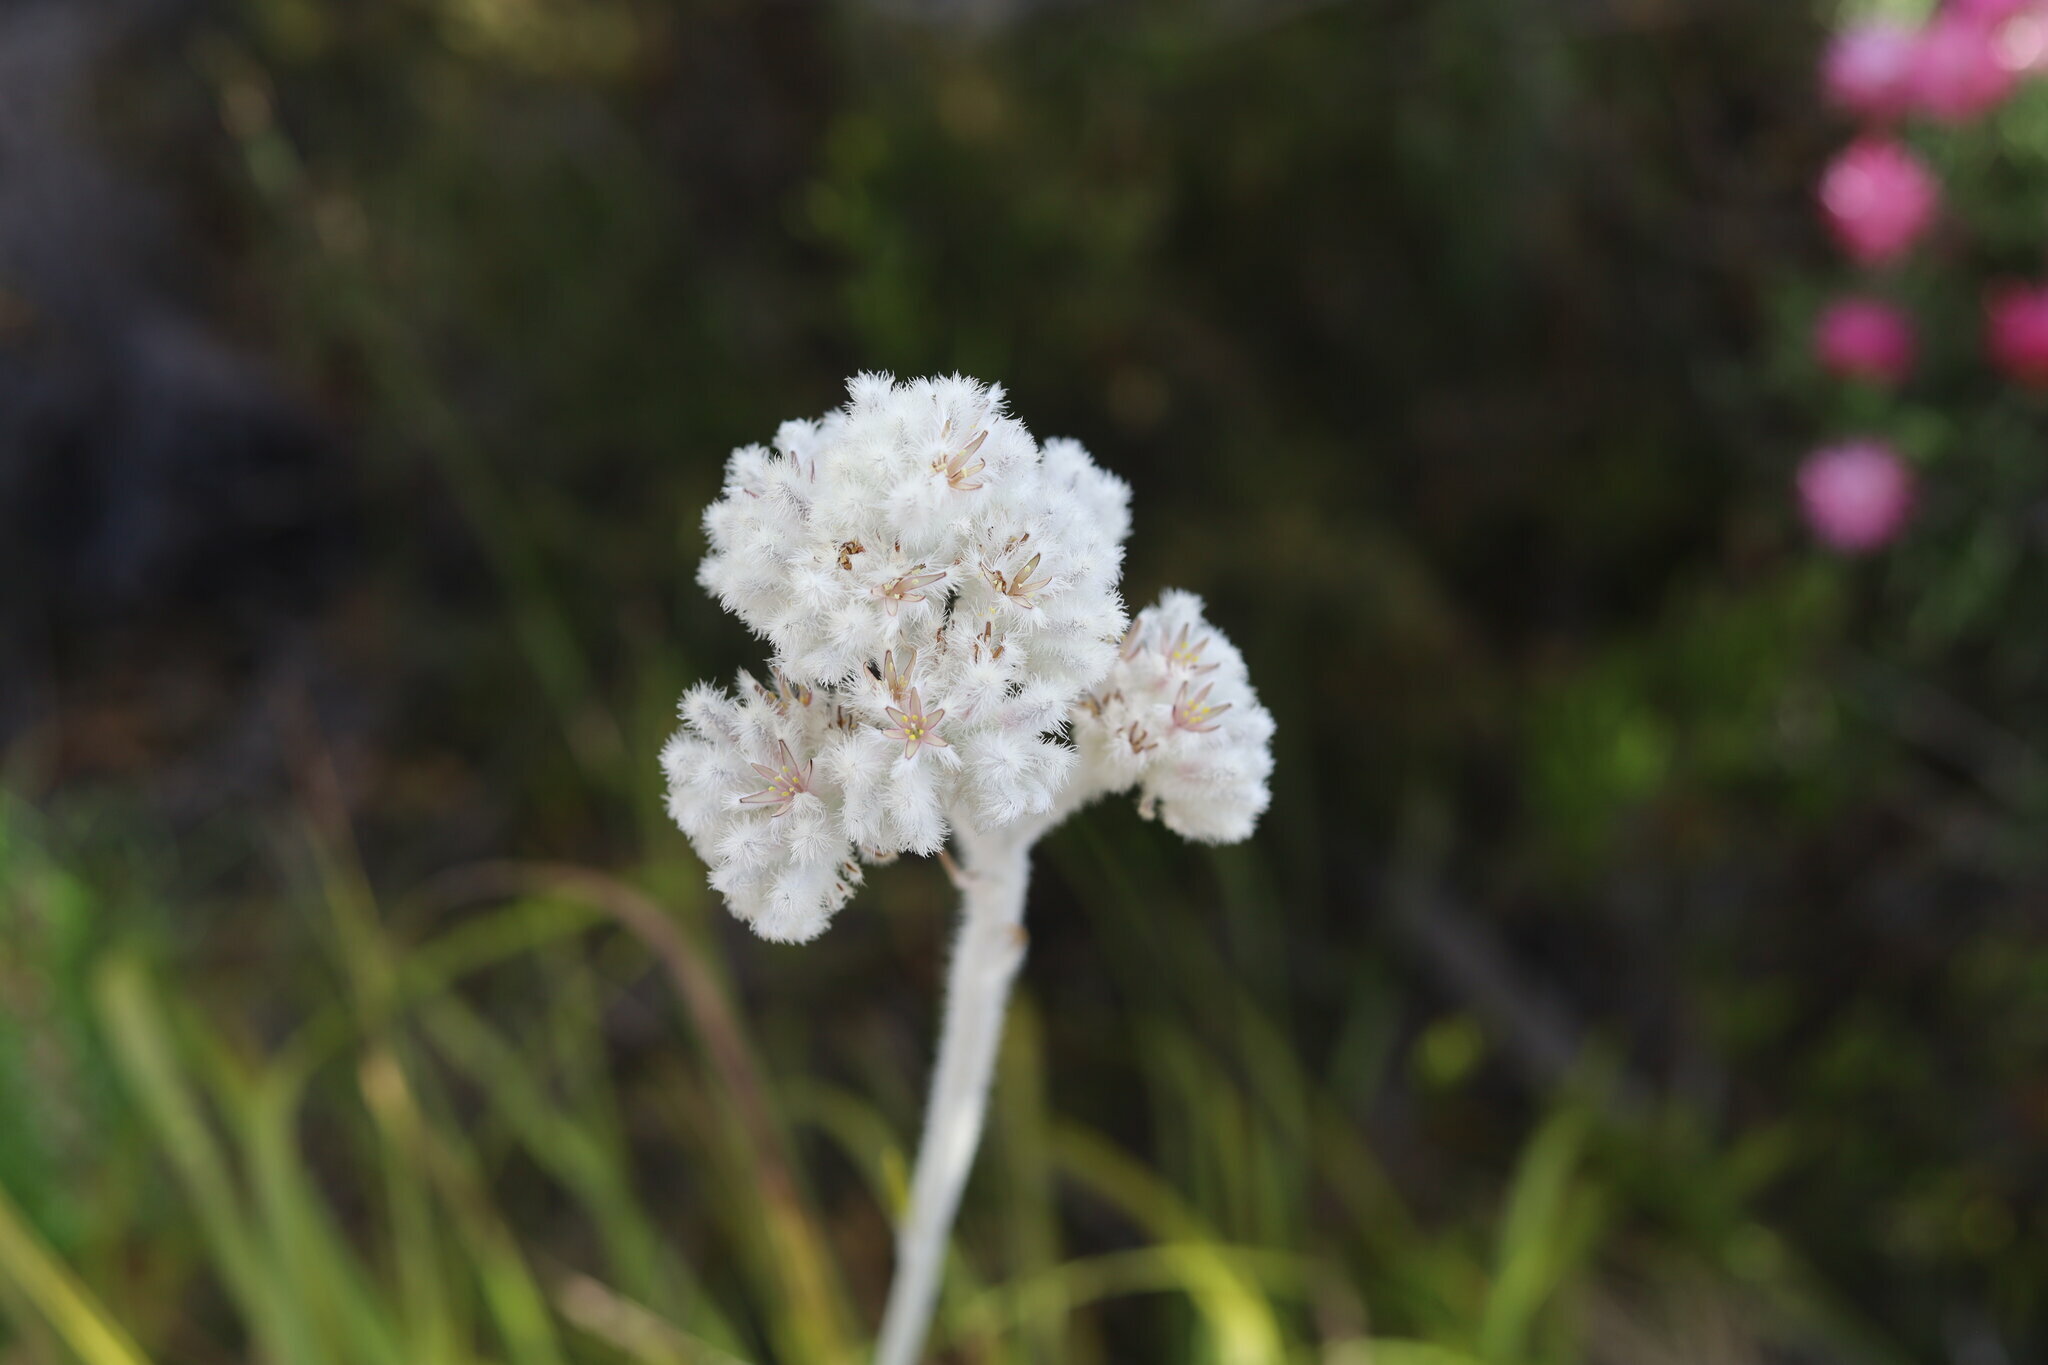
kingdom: Plantae
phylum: Tracheophyta
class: Liliopsida
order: Asparagales
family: Lanariaceae
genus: Lanaria
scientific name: Lanaria lanata
